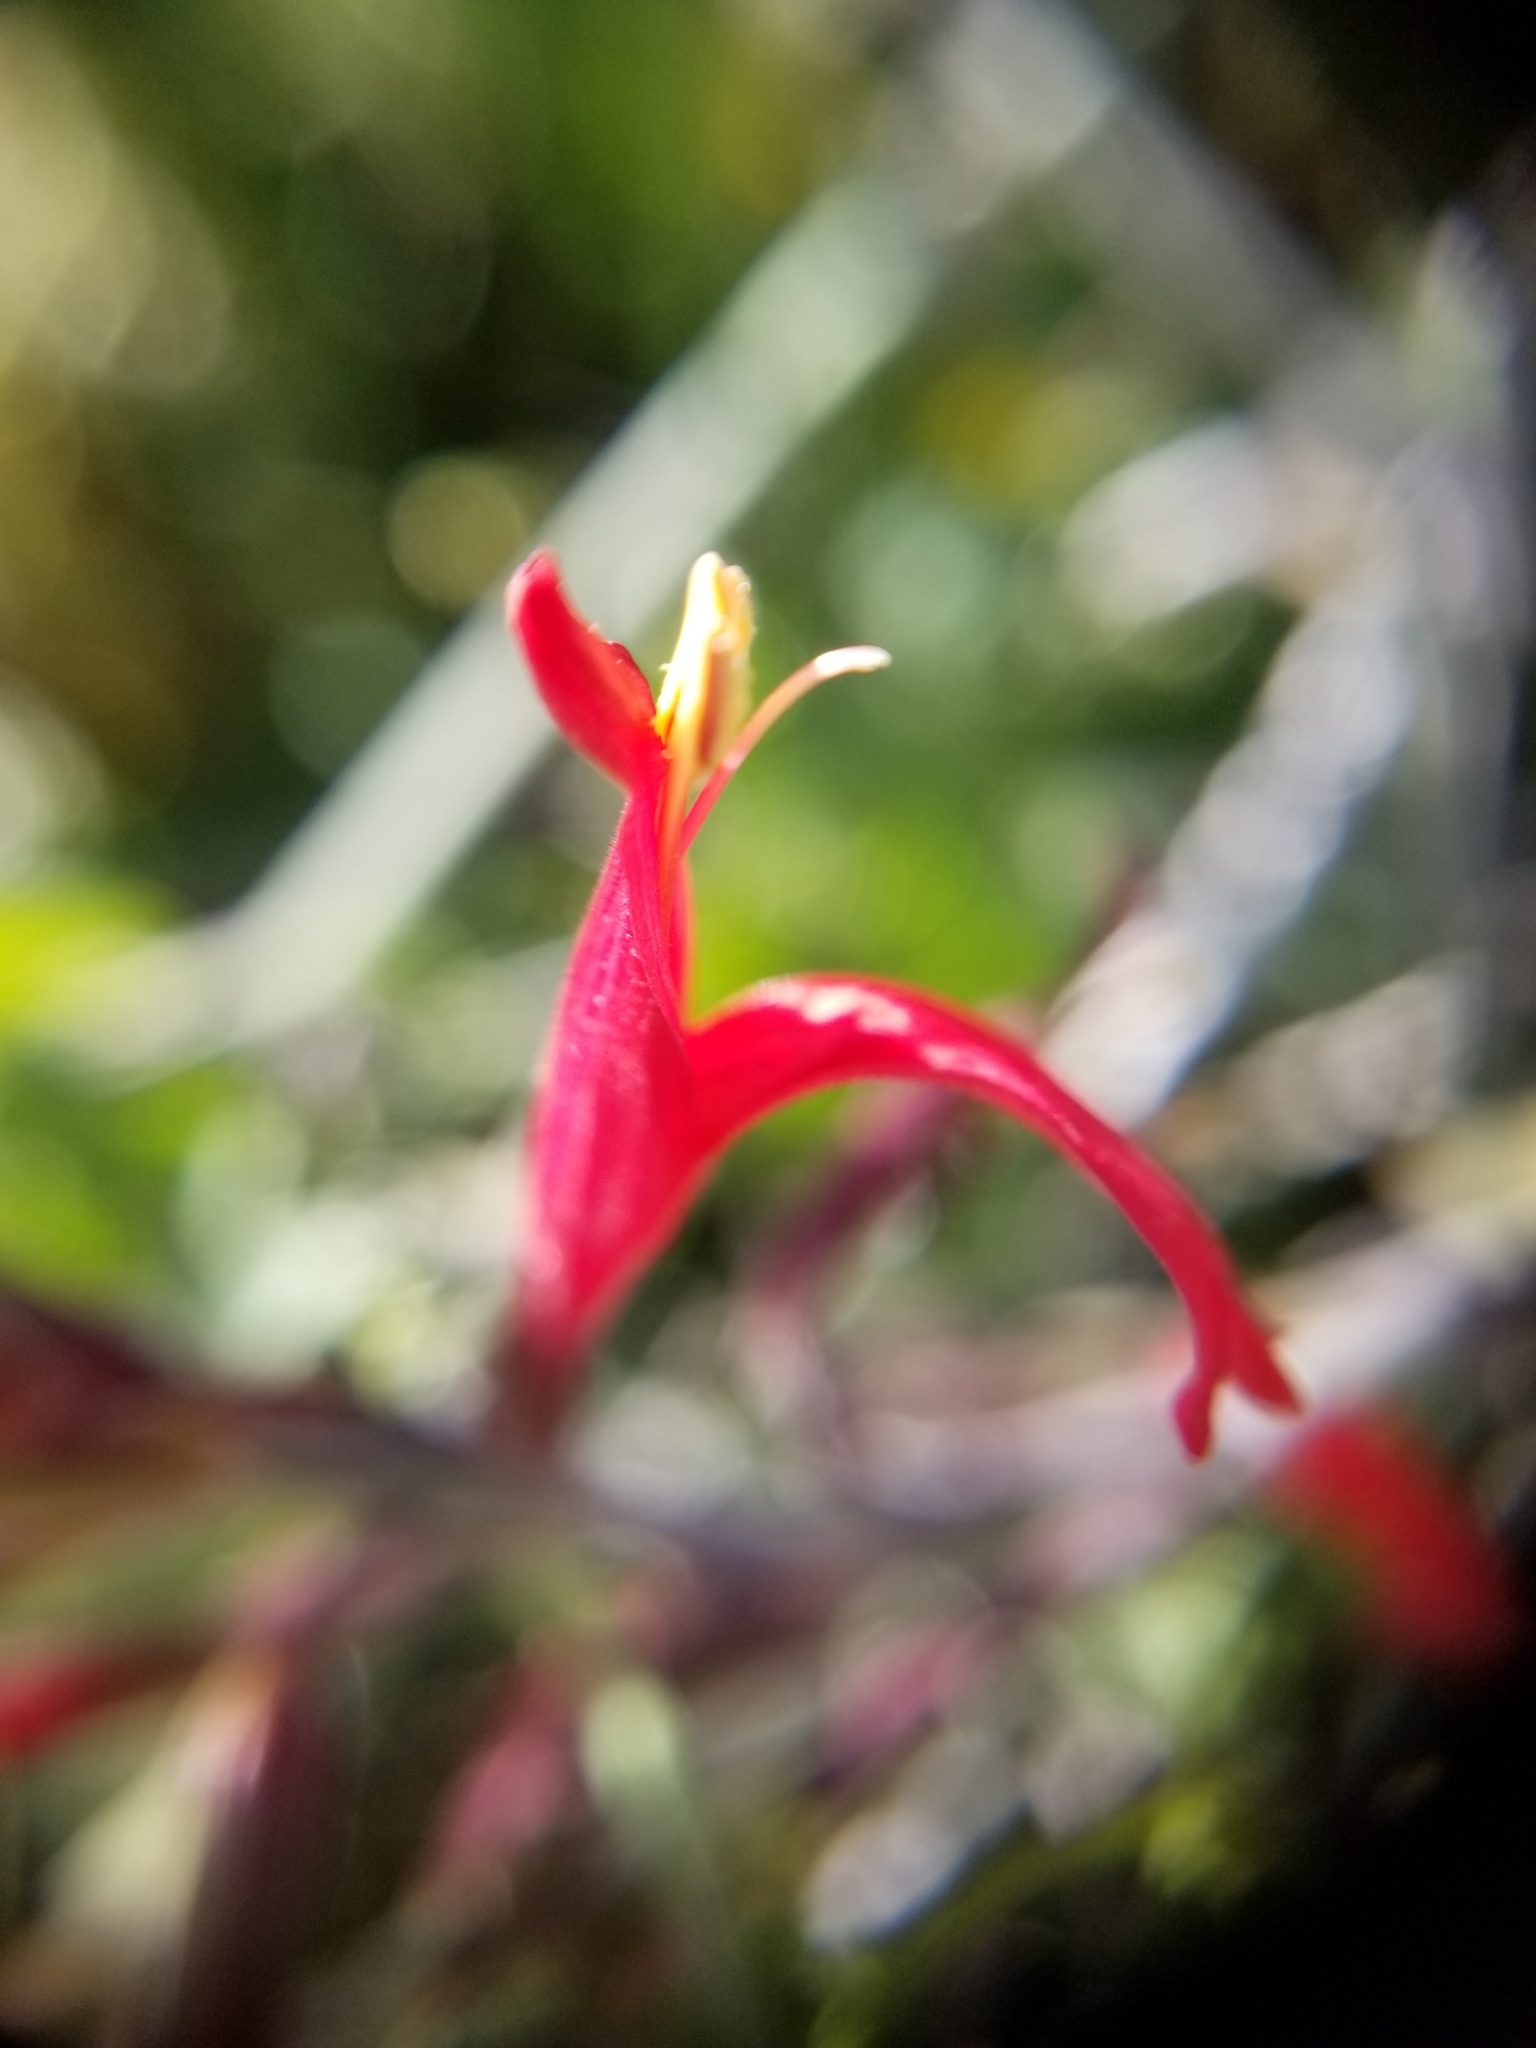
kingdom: Plantae
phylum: Tracheophyta
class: Magnoliopsida
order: Lamiales
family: Acanthaceae
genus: Justicia
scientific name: Justicia californica
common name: Chuparosa-honeysuckle
